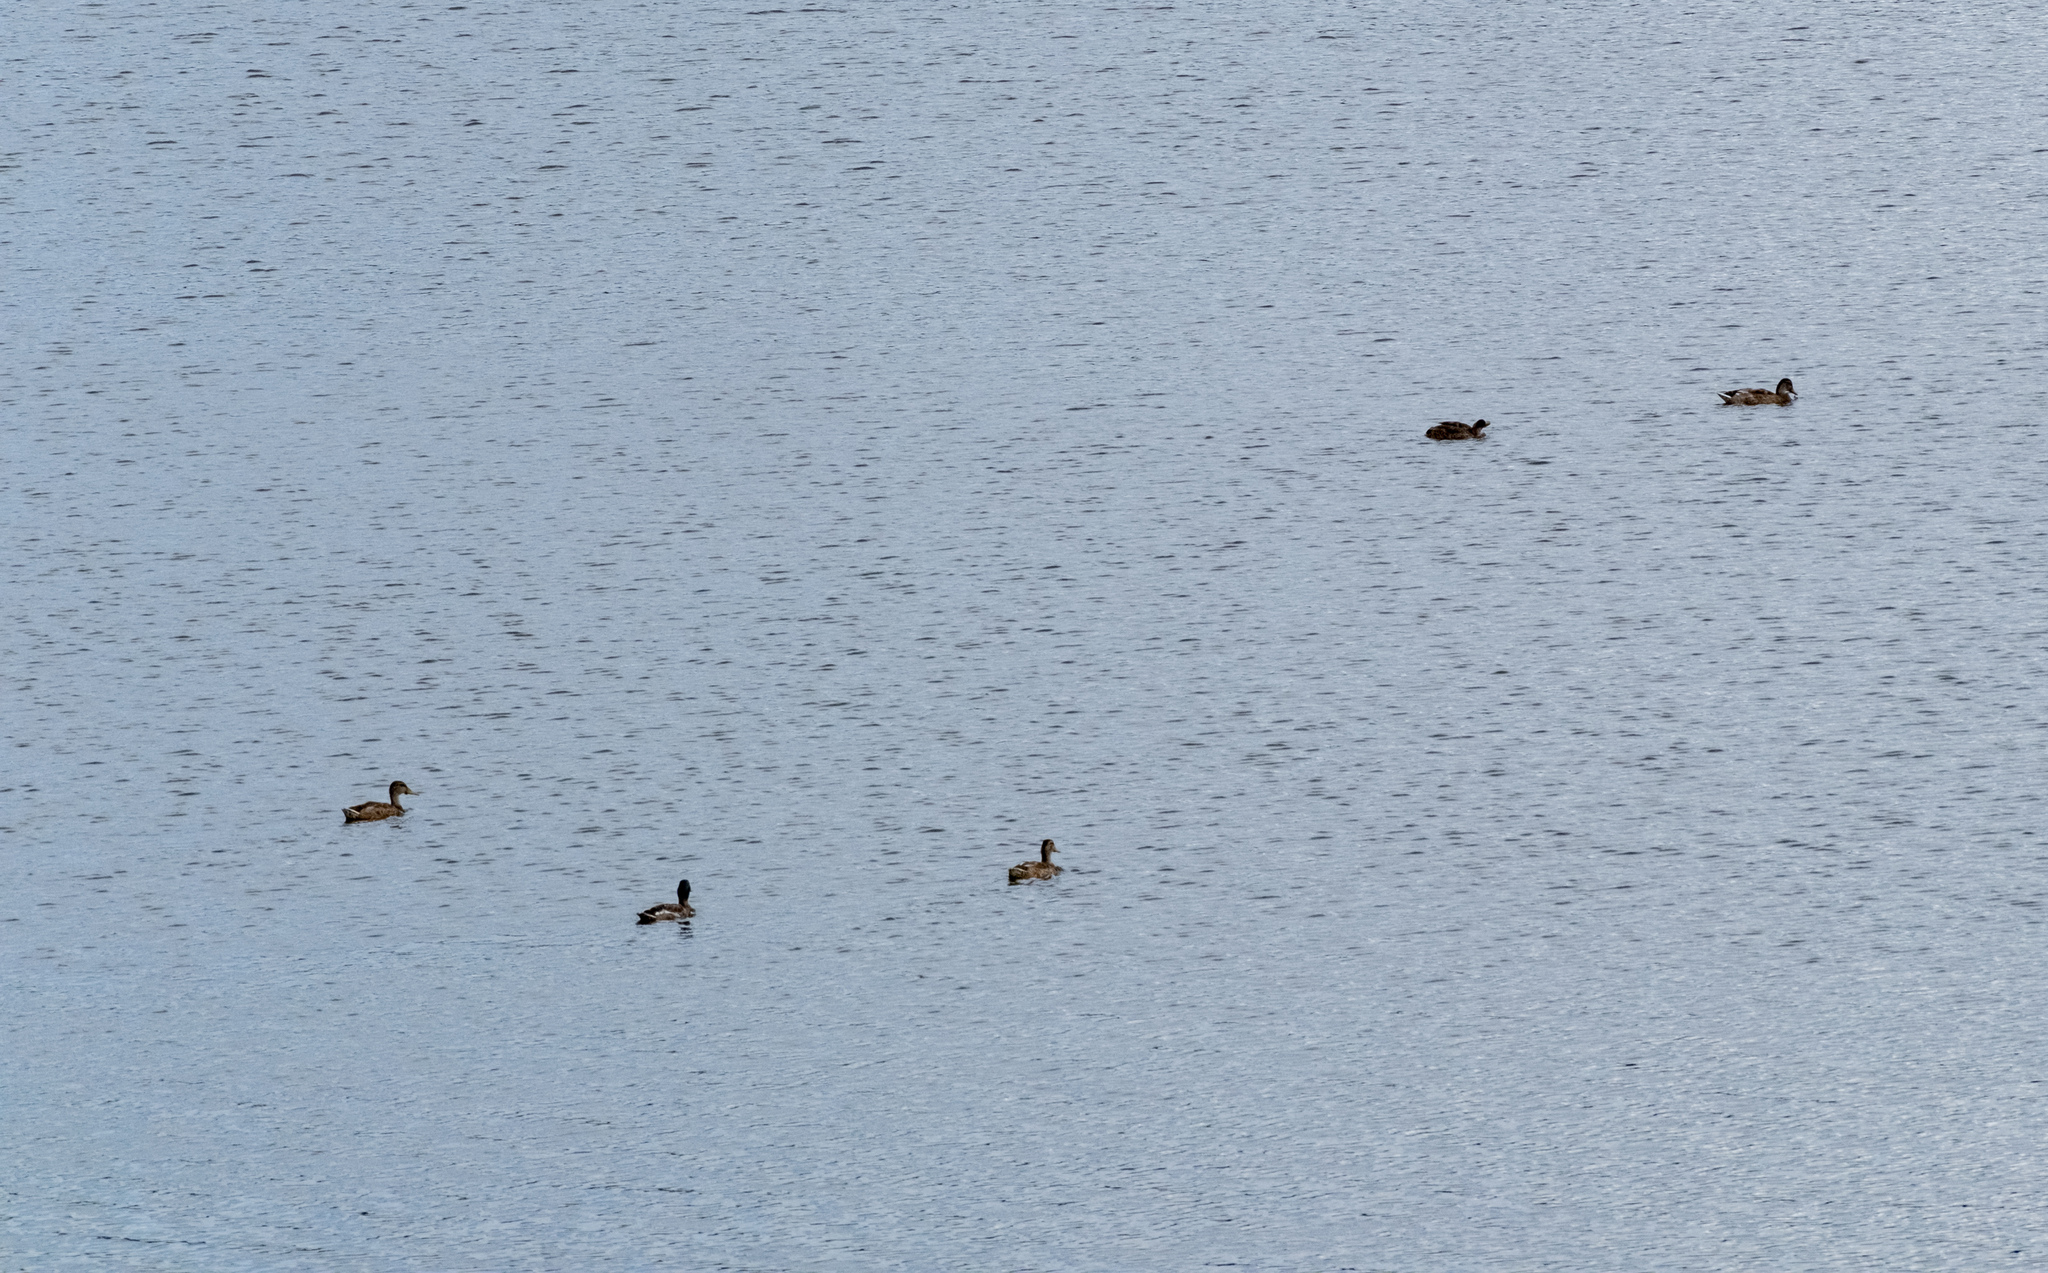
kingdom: Animalia
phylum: Chordata
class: Aves
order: Anseriformes
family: Anatidae
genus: Anas
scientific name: Anas platyrhynchos
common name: Mallard
